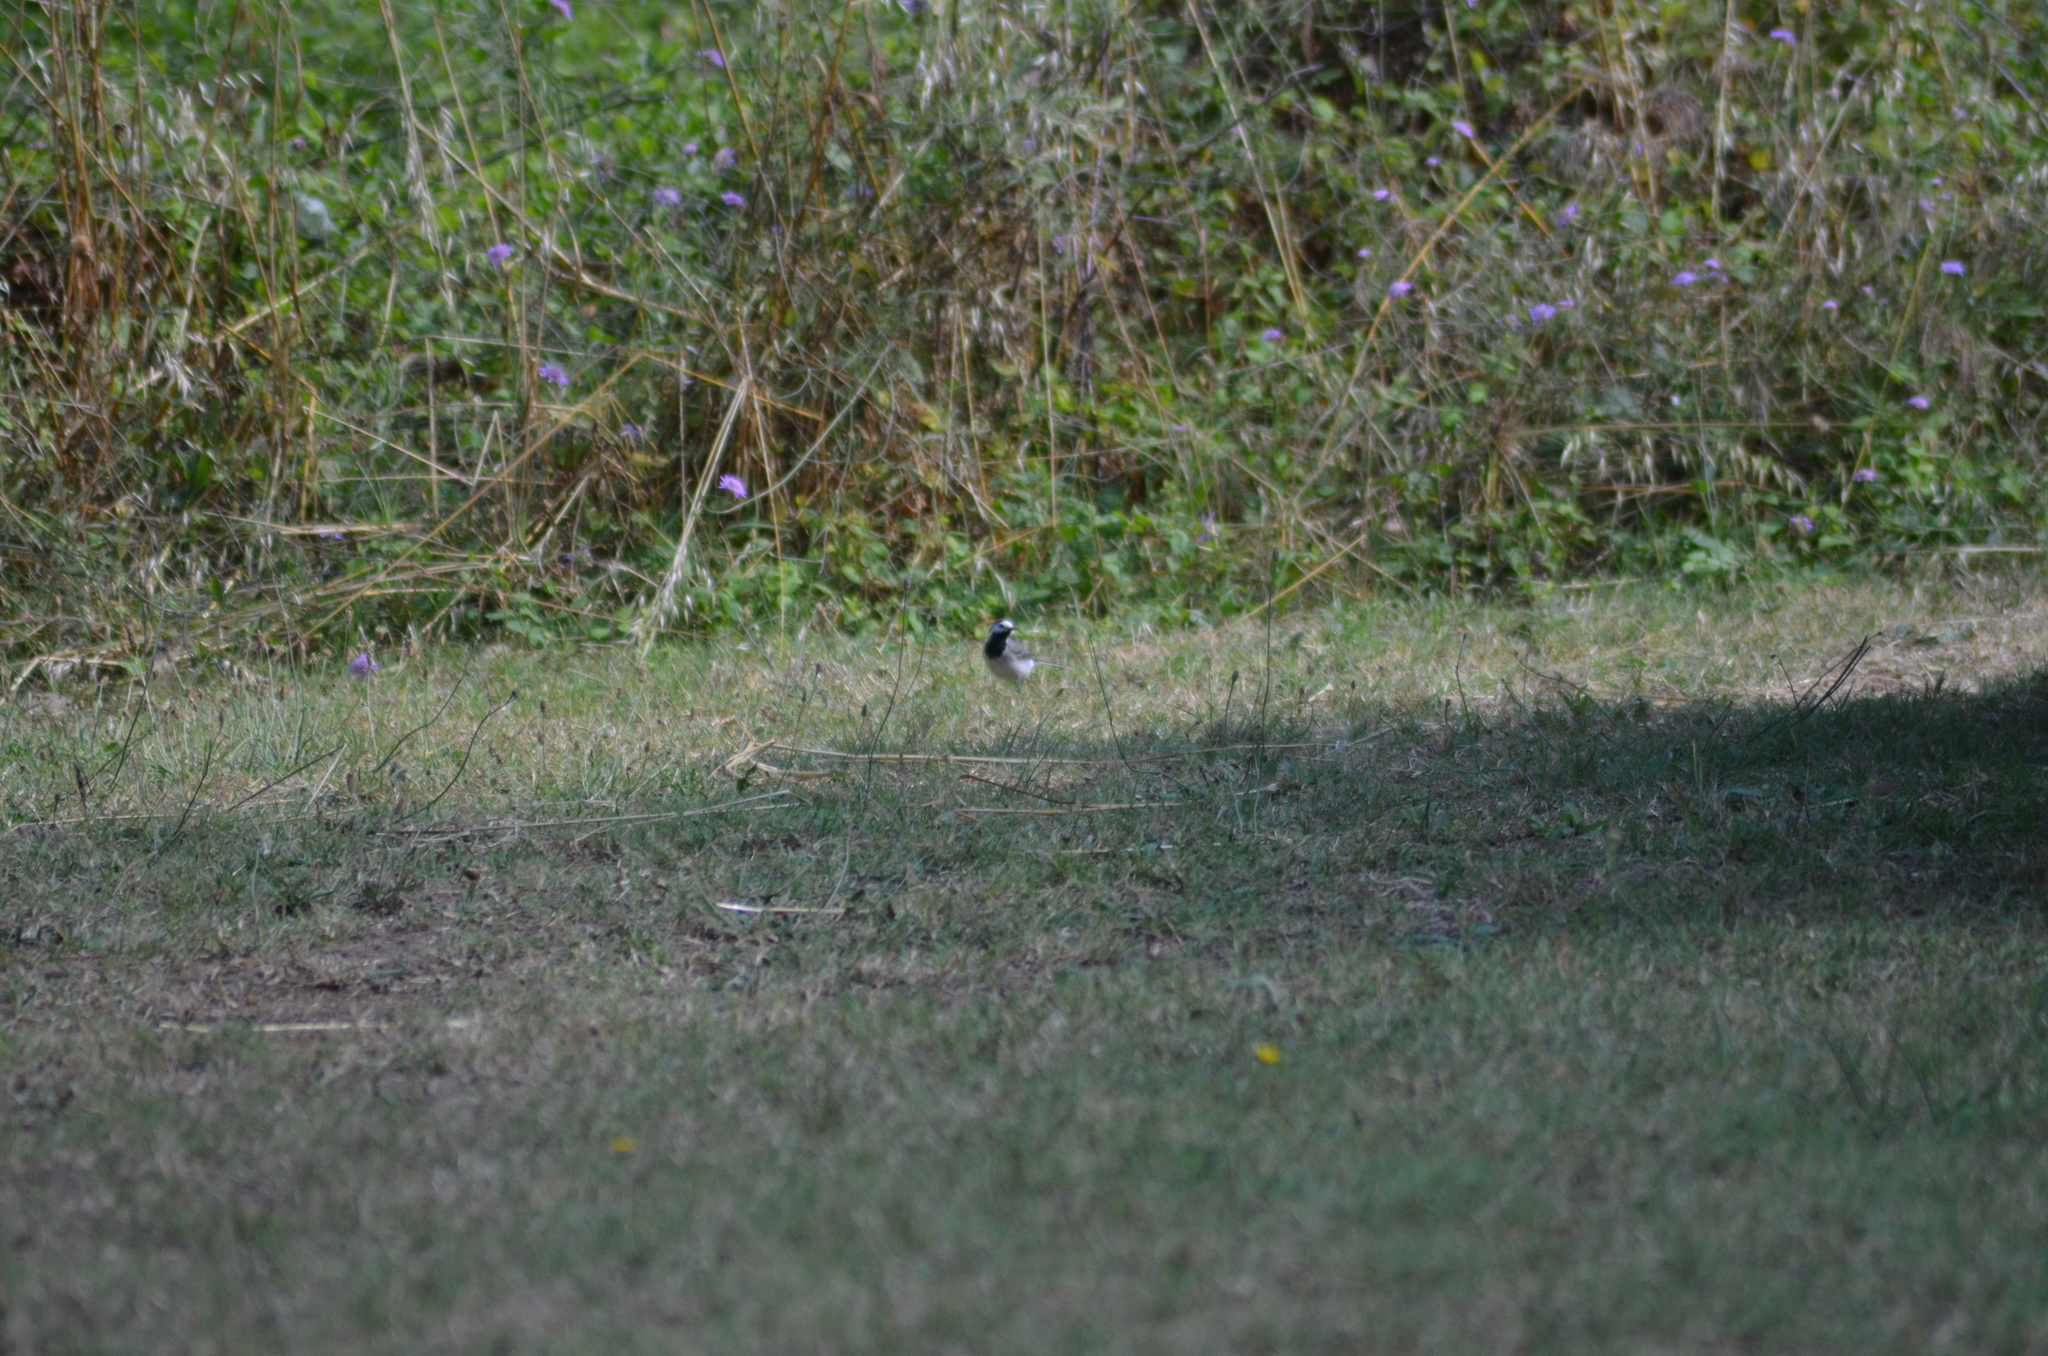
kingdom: Animalia
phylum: Chordata
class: Aves
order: Passeriformes
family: Motacillidae
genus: Motacilla
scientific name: Motacilla alba
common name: White wagtail
